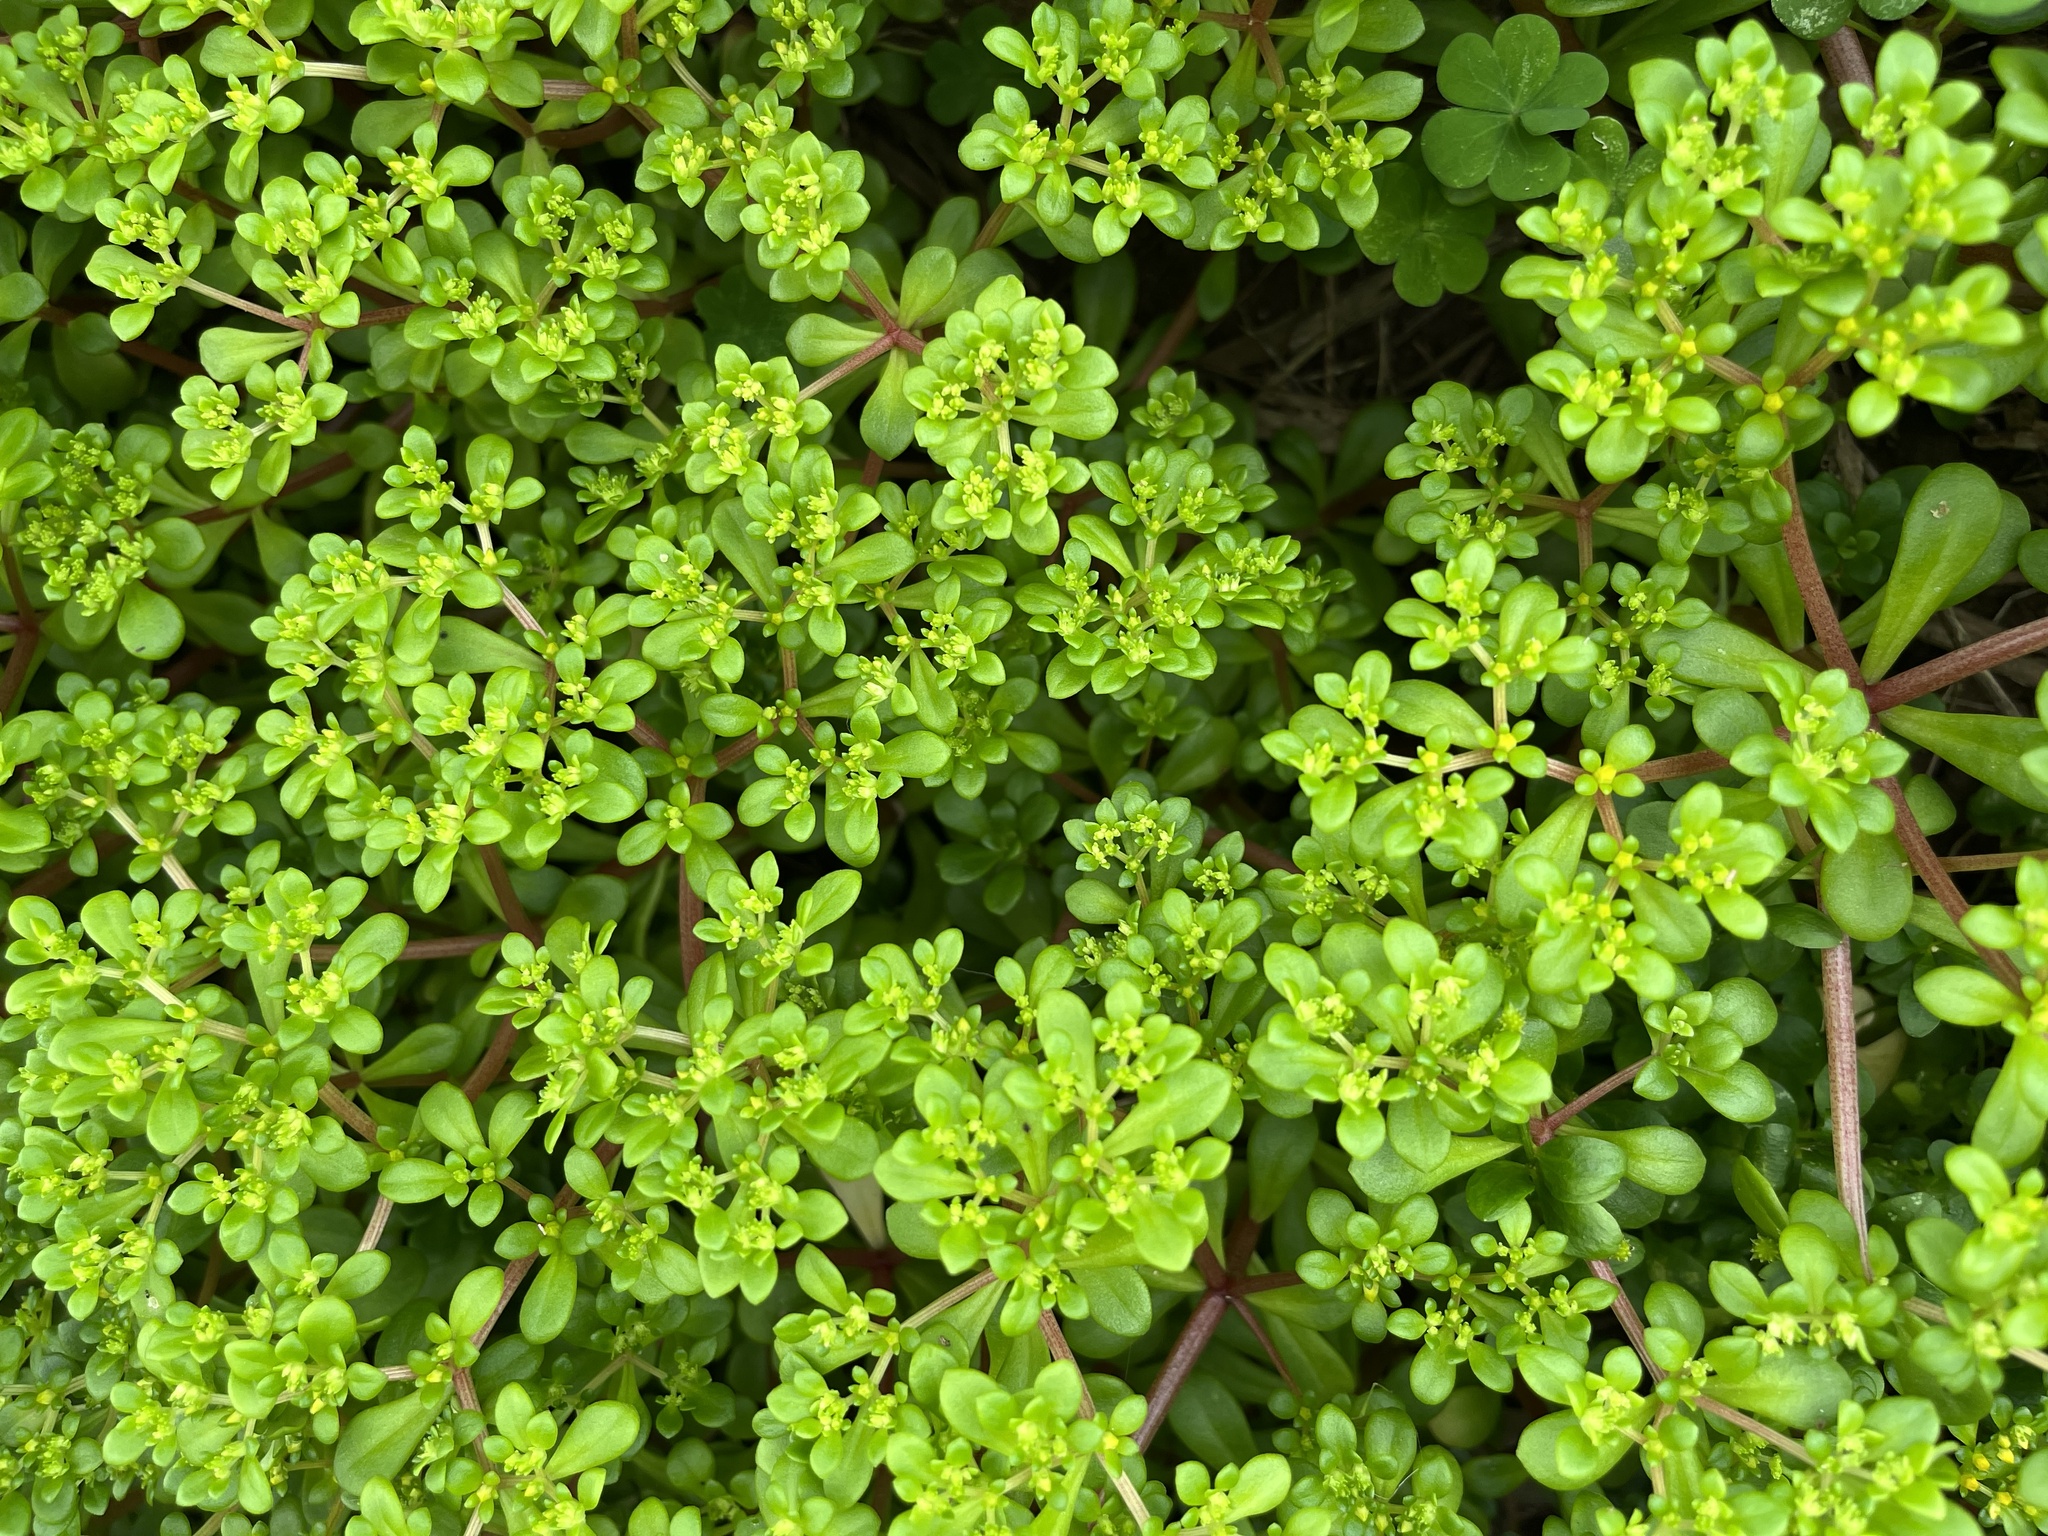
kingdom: Plantae
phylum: Tracheophyta
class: Magnoliopsida
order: Saxifragales
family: Crassulaceae
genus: Sedum
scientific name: Sedum formosanum
